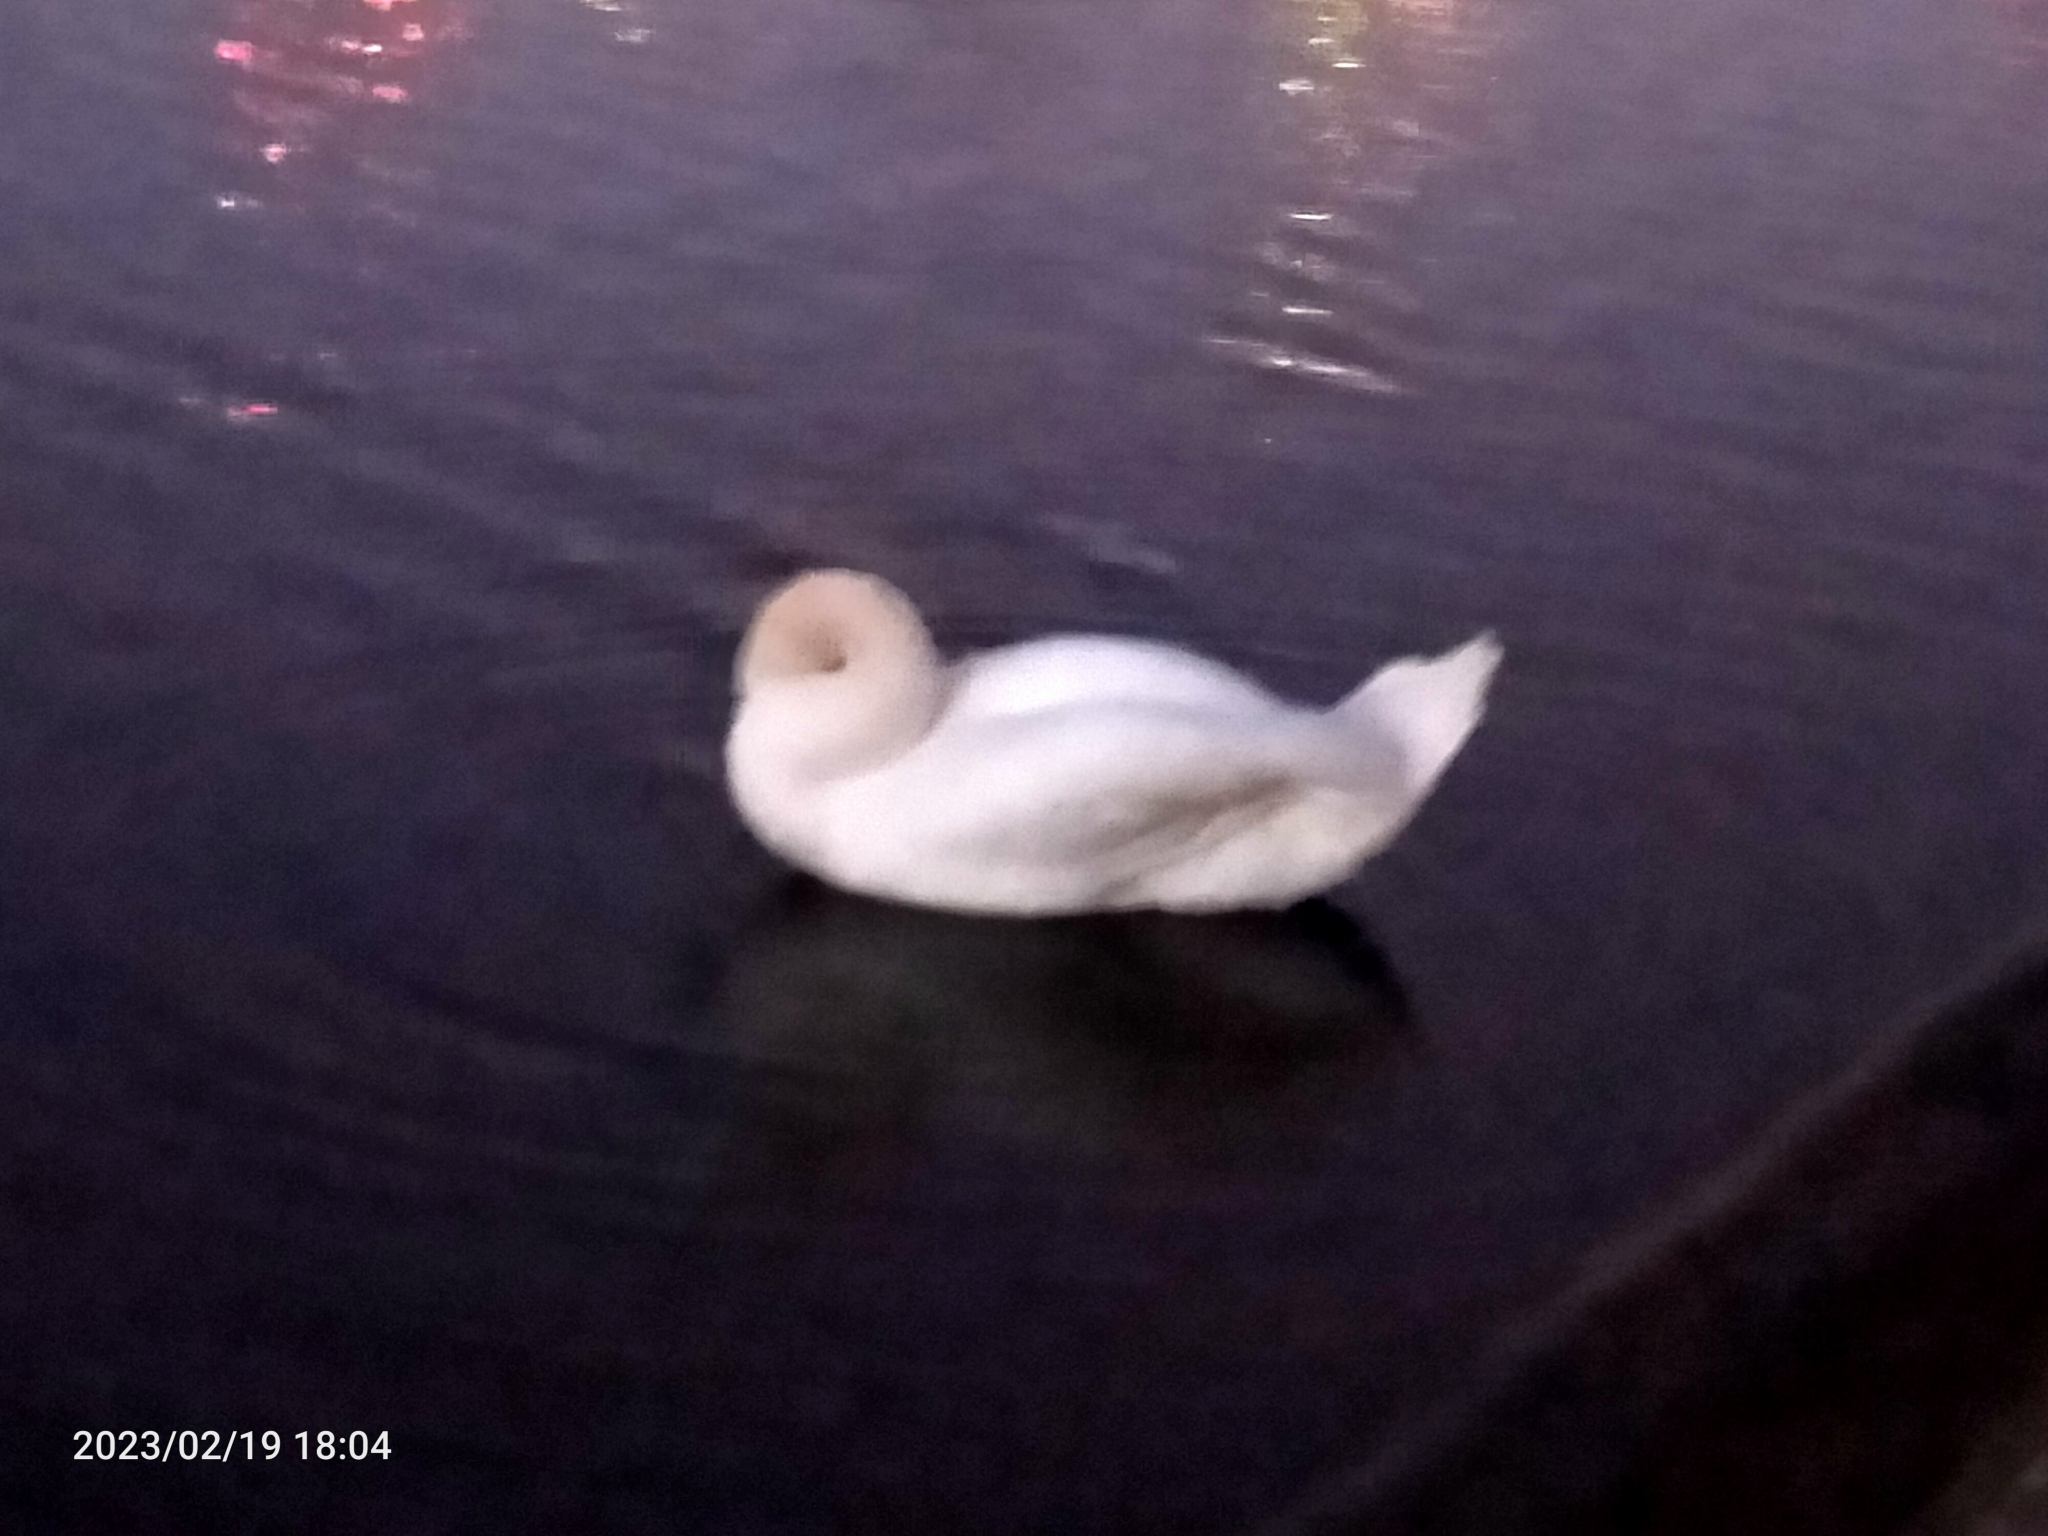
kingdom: Animalia
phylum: Chordata
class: Aves
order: Anseriformes
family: Anatidae
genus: Cygnus
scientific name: Cygnus olor
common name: Mute swan
